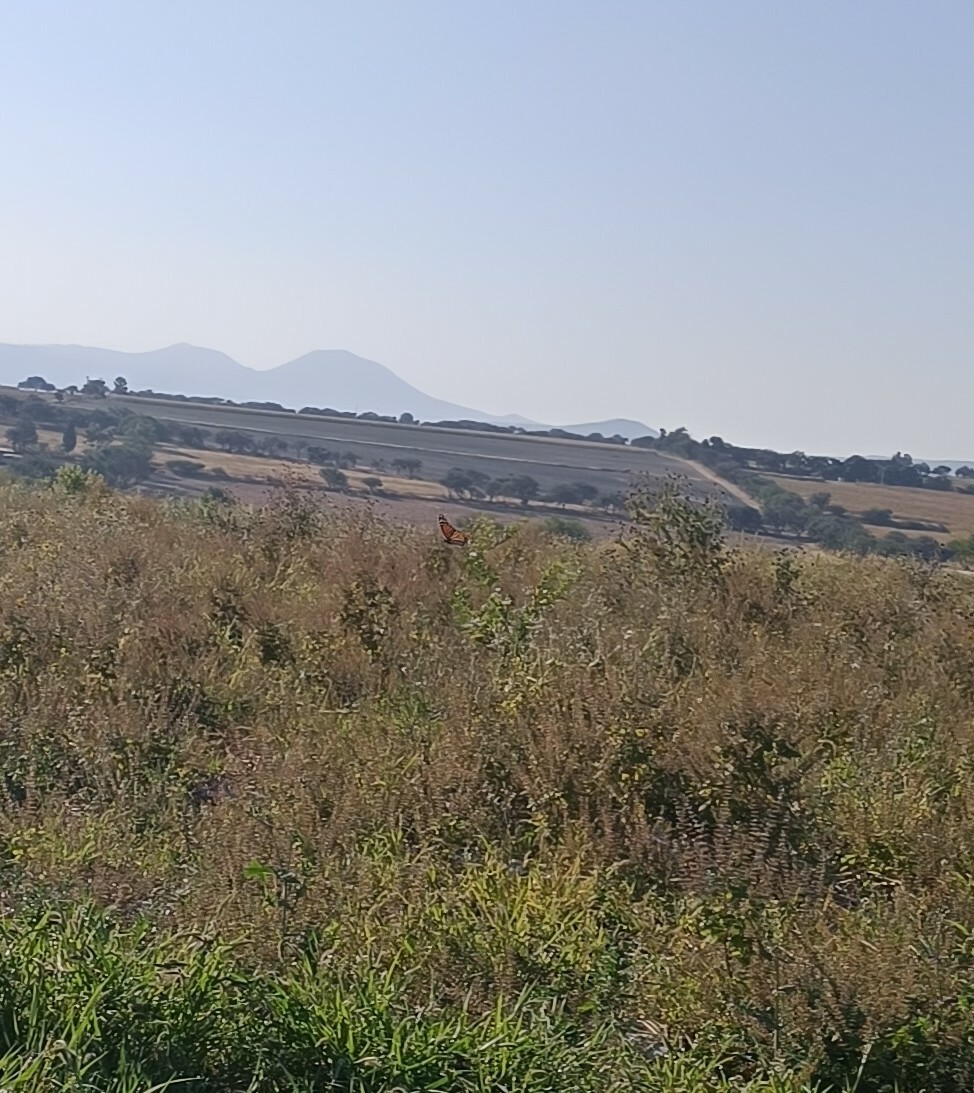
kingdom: Animalia
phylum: Arthropoda
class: Insecta
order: Lepidoptera
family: Nymphalidae
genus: Danaus
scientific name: Danaus plexippus
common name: Monarch
